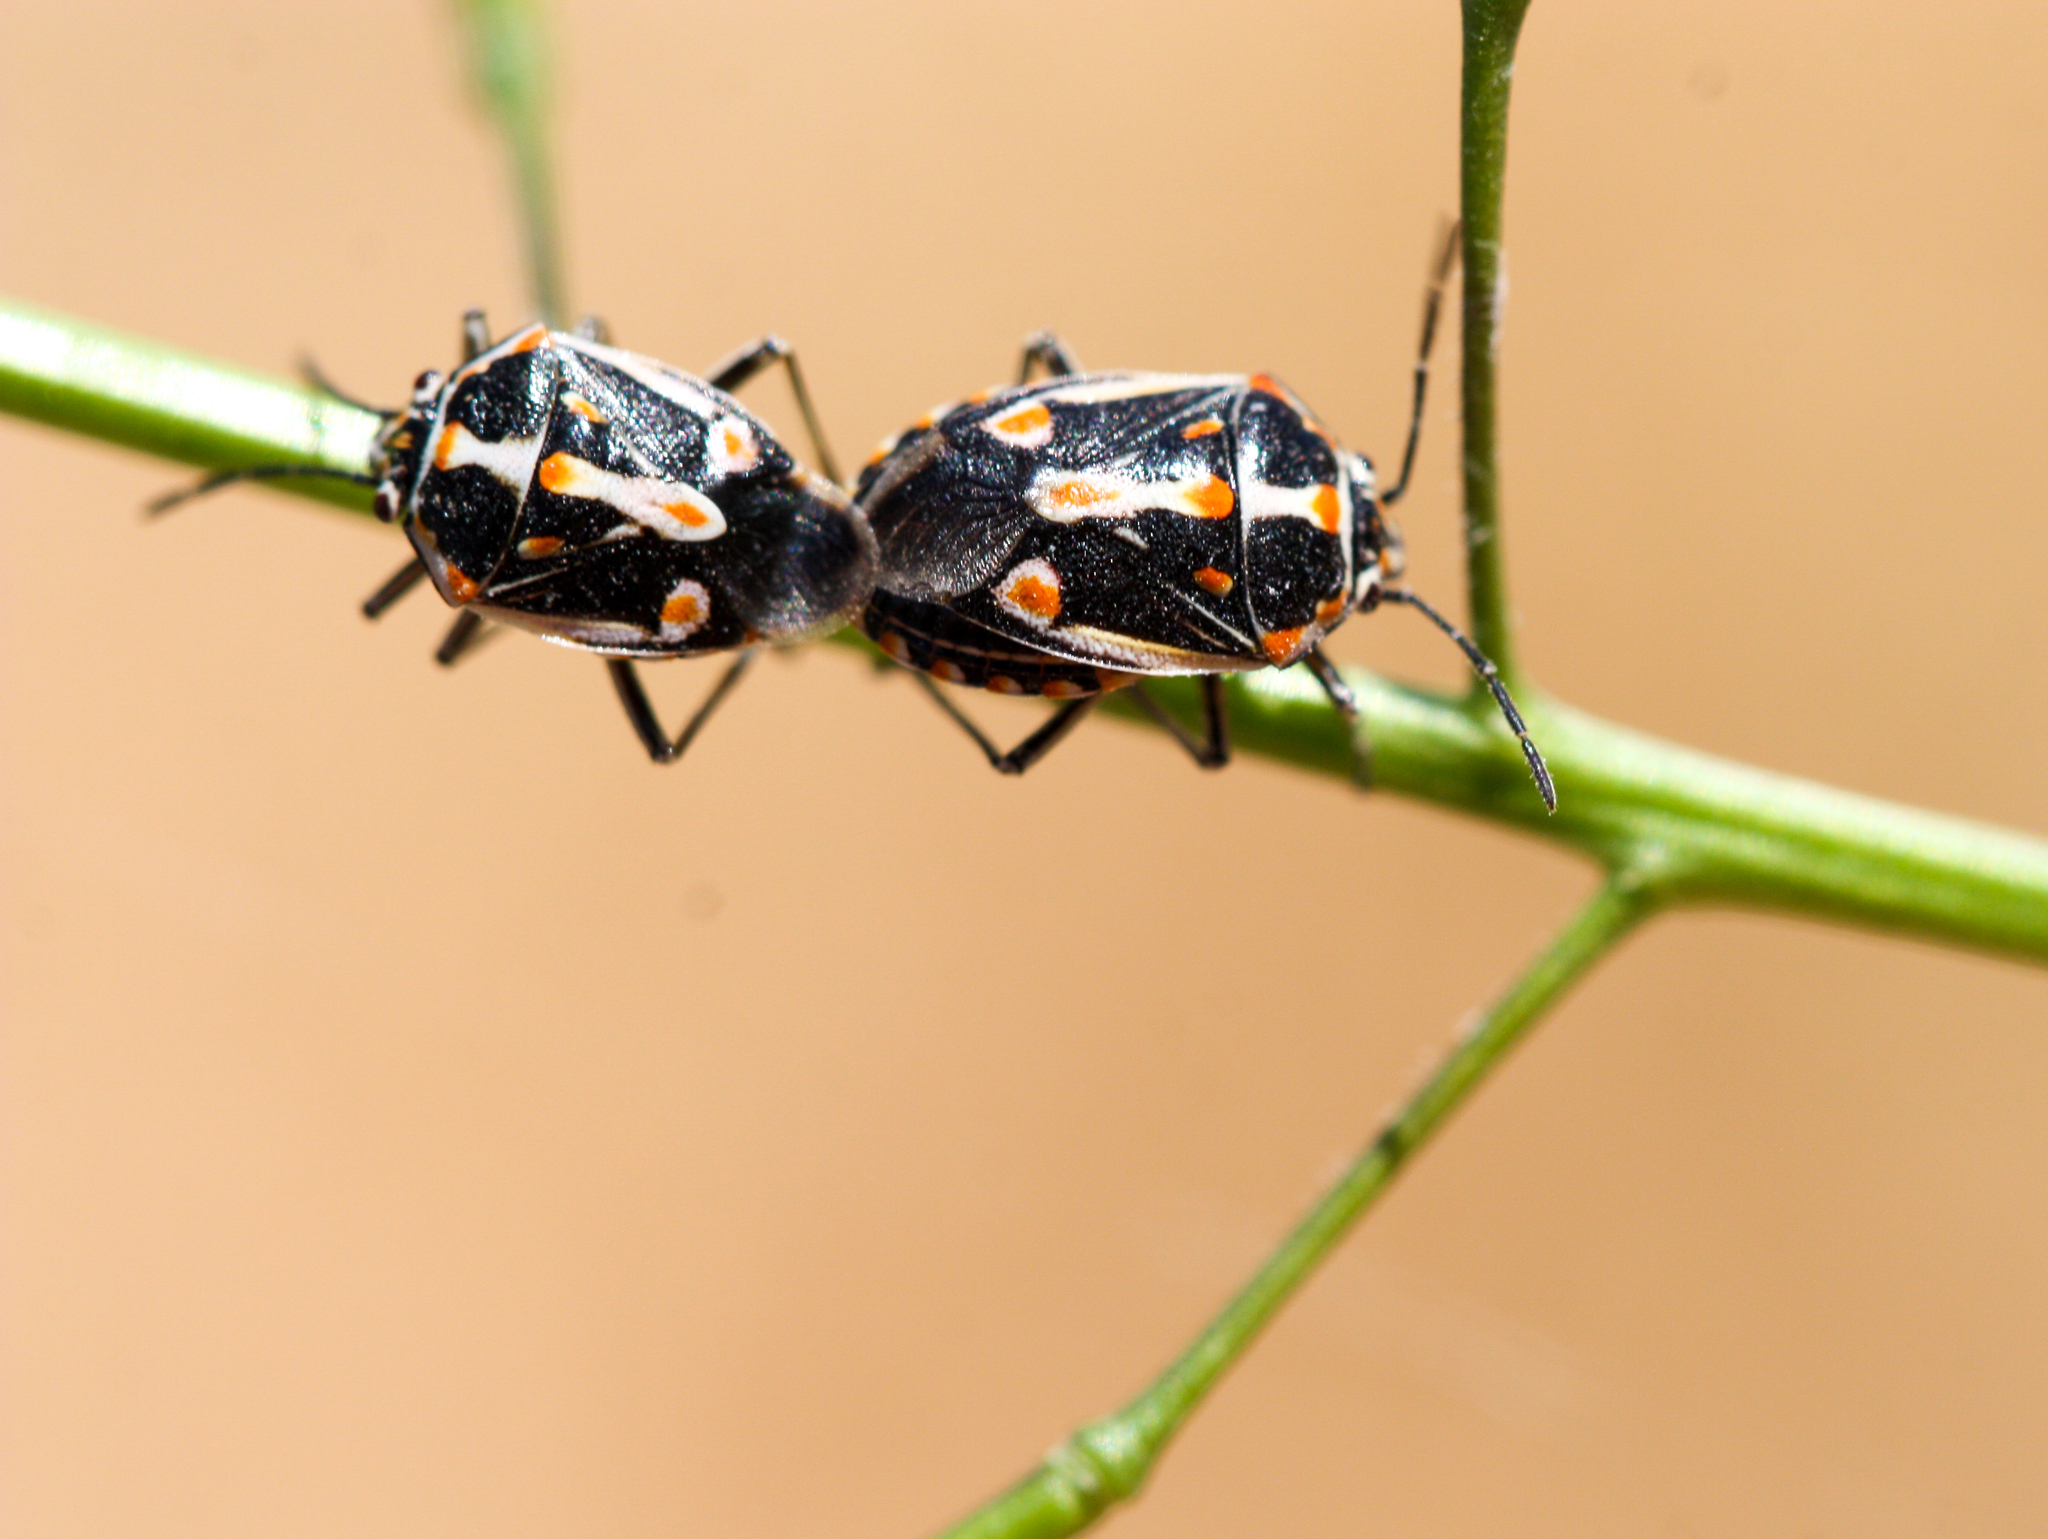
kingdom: Animalia
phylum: Arthropoda
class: Insecta
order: Hemiptera
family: Pentatomidae
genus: Bagrada
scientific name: Bagrada hilaris
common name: Bagrada bug
